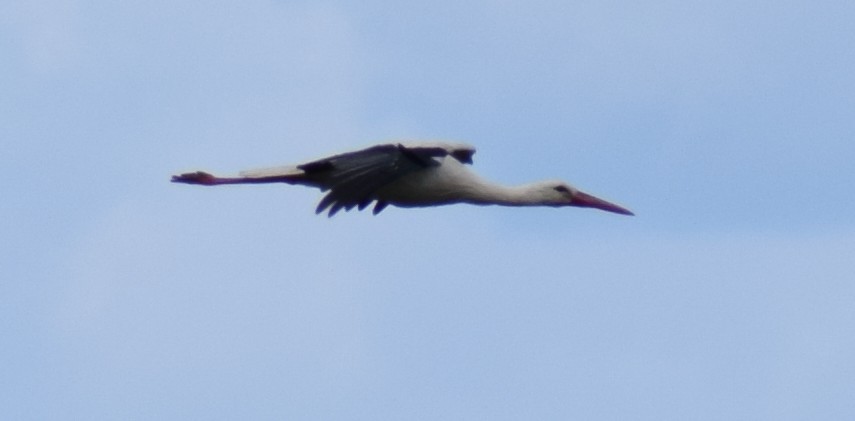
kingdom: Animalia
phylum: Chordata
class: Aves
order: Ciconiiformes
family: Ciconiidae
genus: Ciconia
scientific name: Ciconia ciconia
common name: White stork
